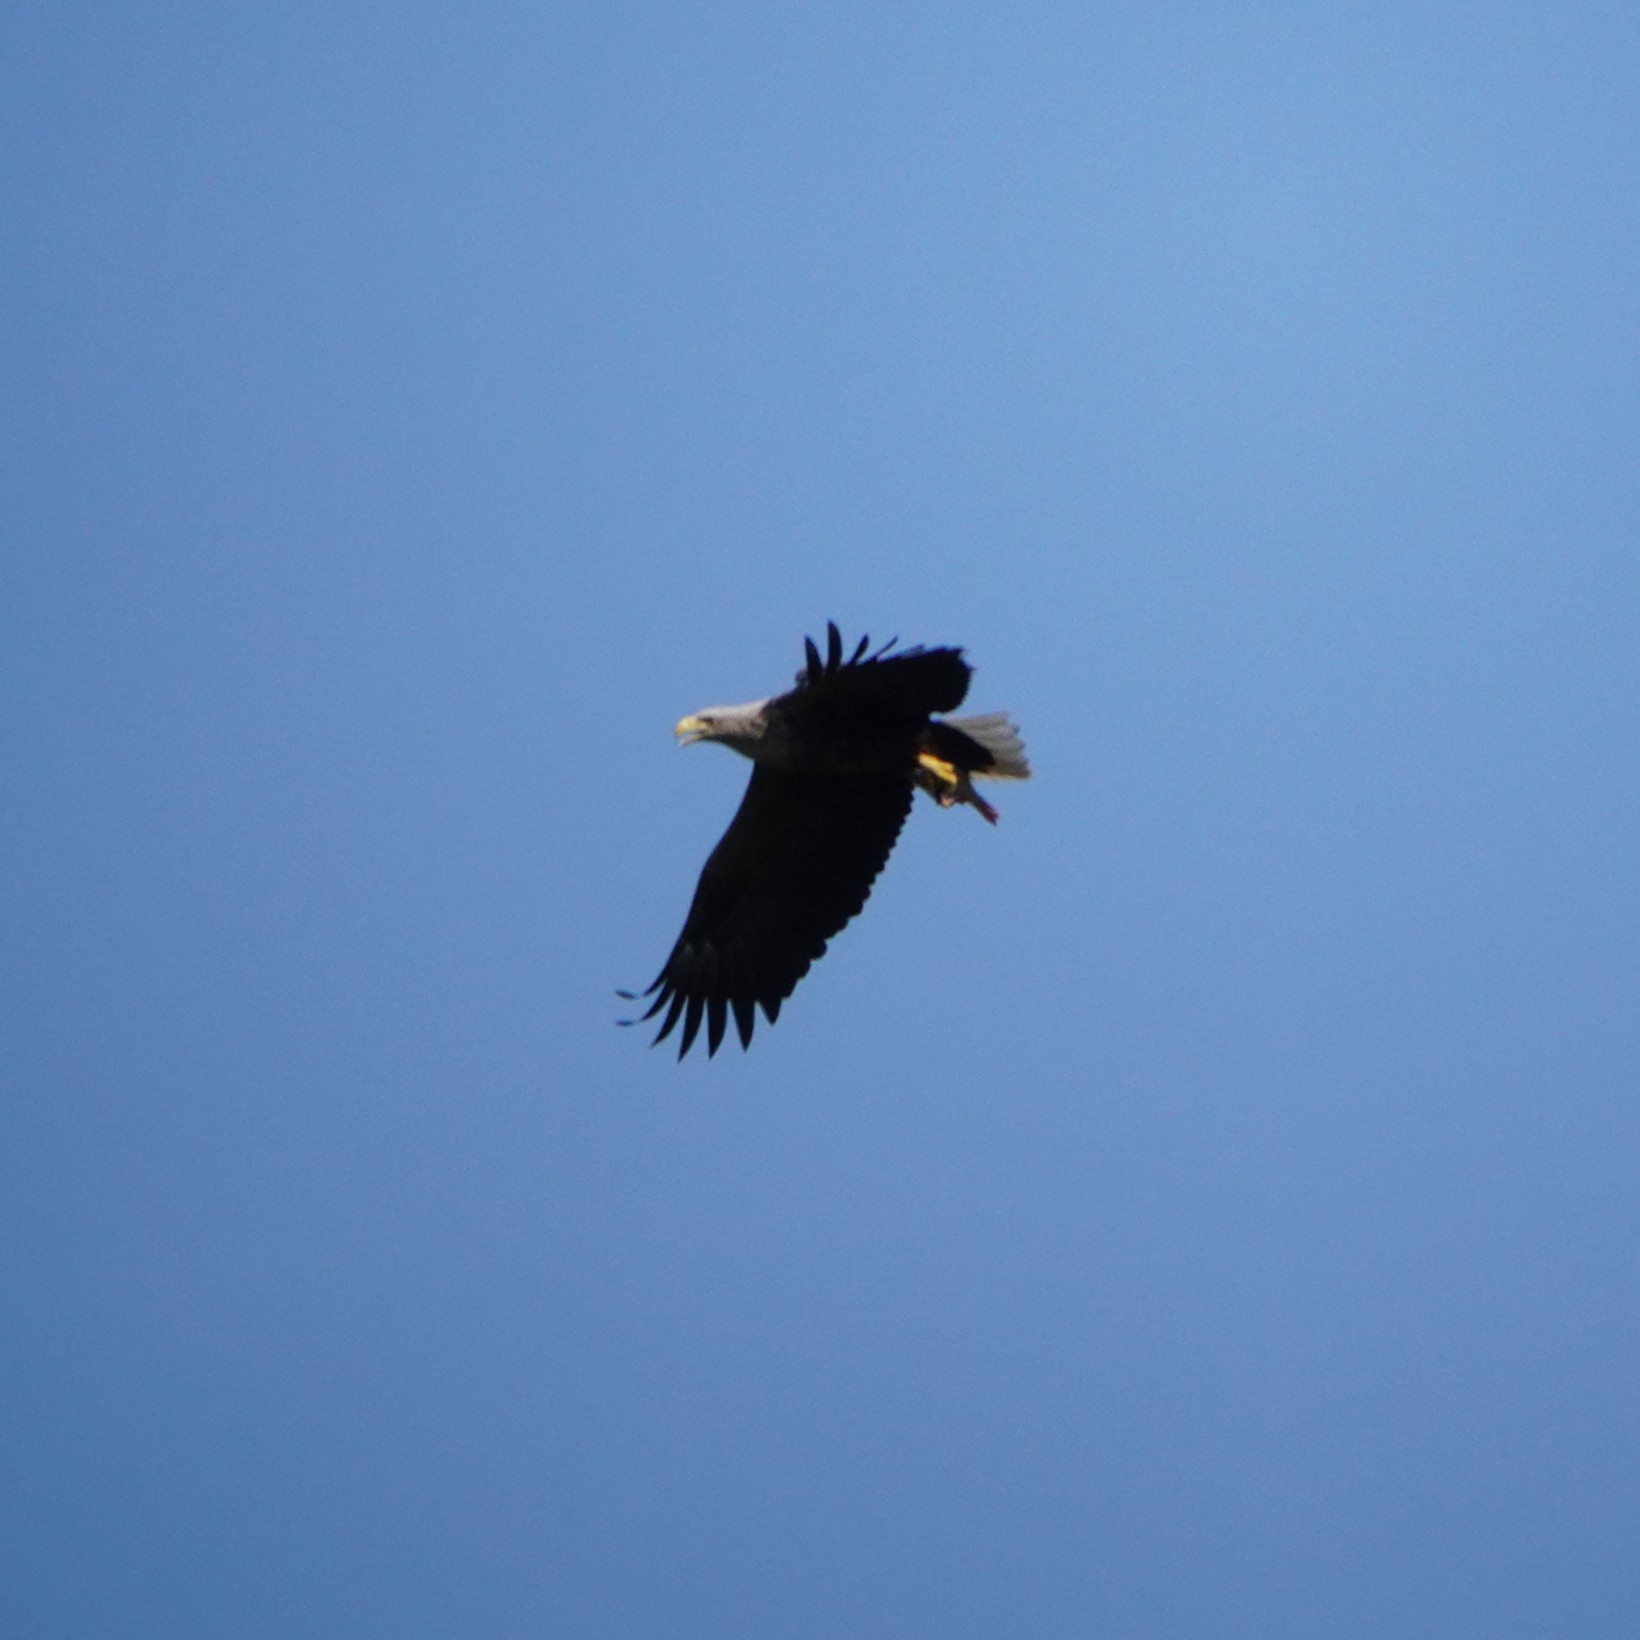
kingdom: Animalia
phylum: Chordata
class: Aves
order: Accipitriformes
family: Accipitridae
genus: Haliaeetus
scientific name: Haliaeetus albicilla
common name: White-tailed eagle
